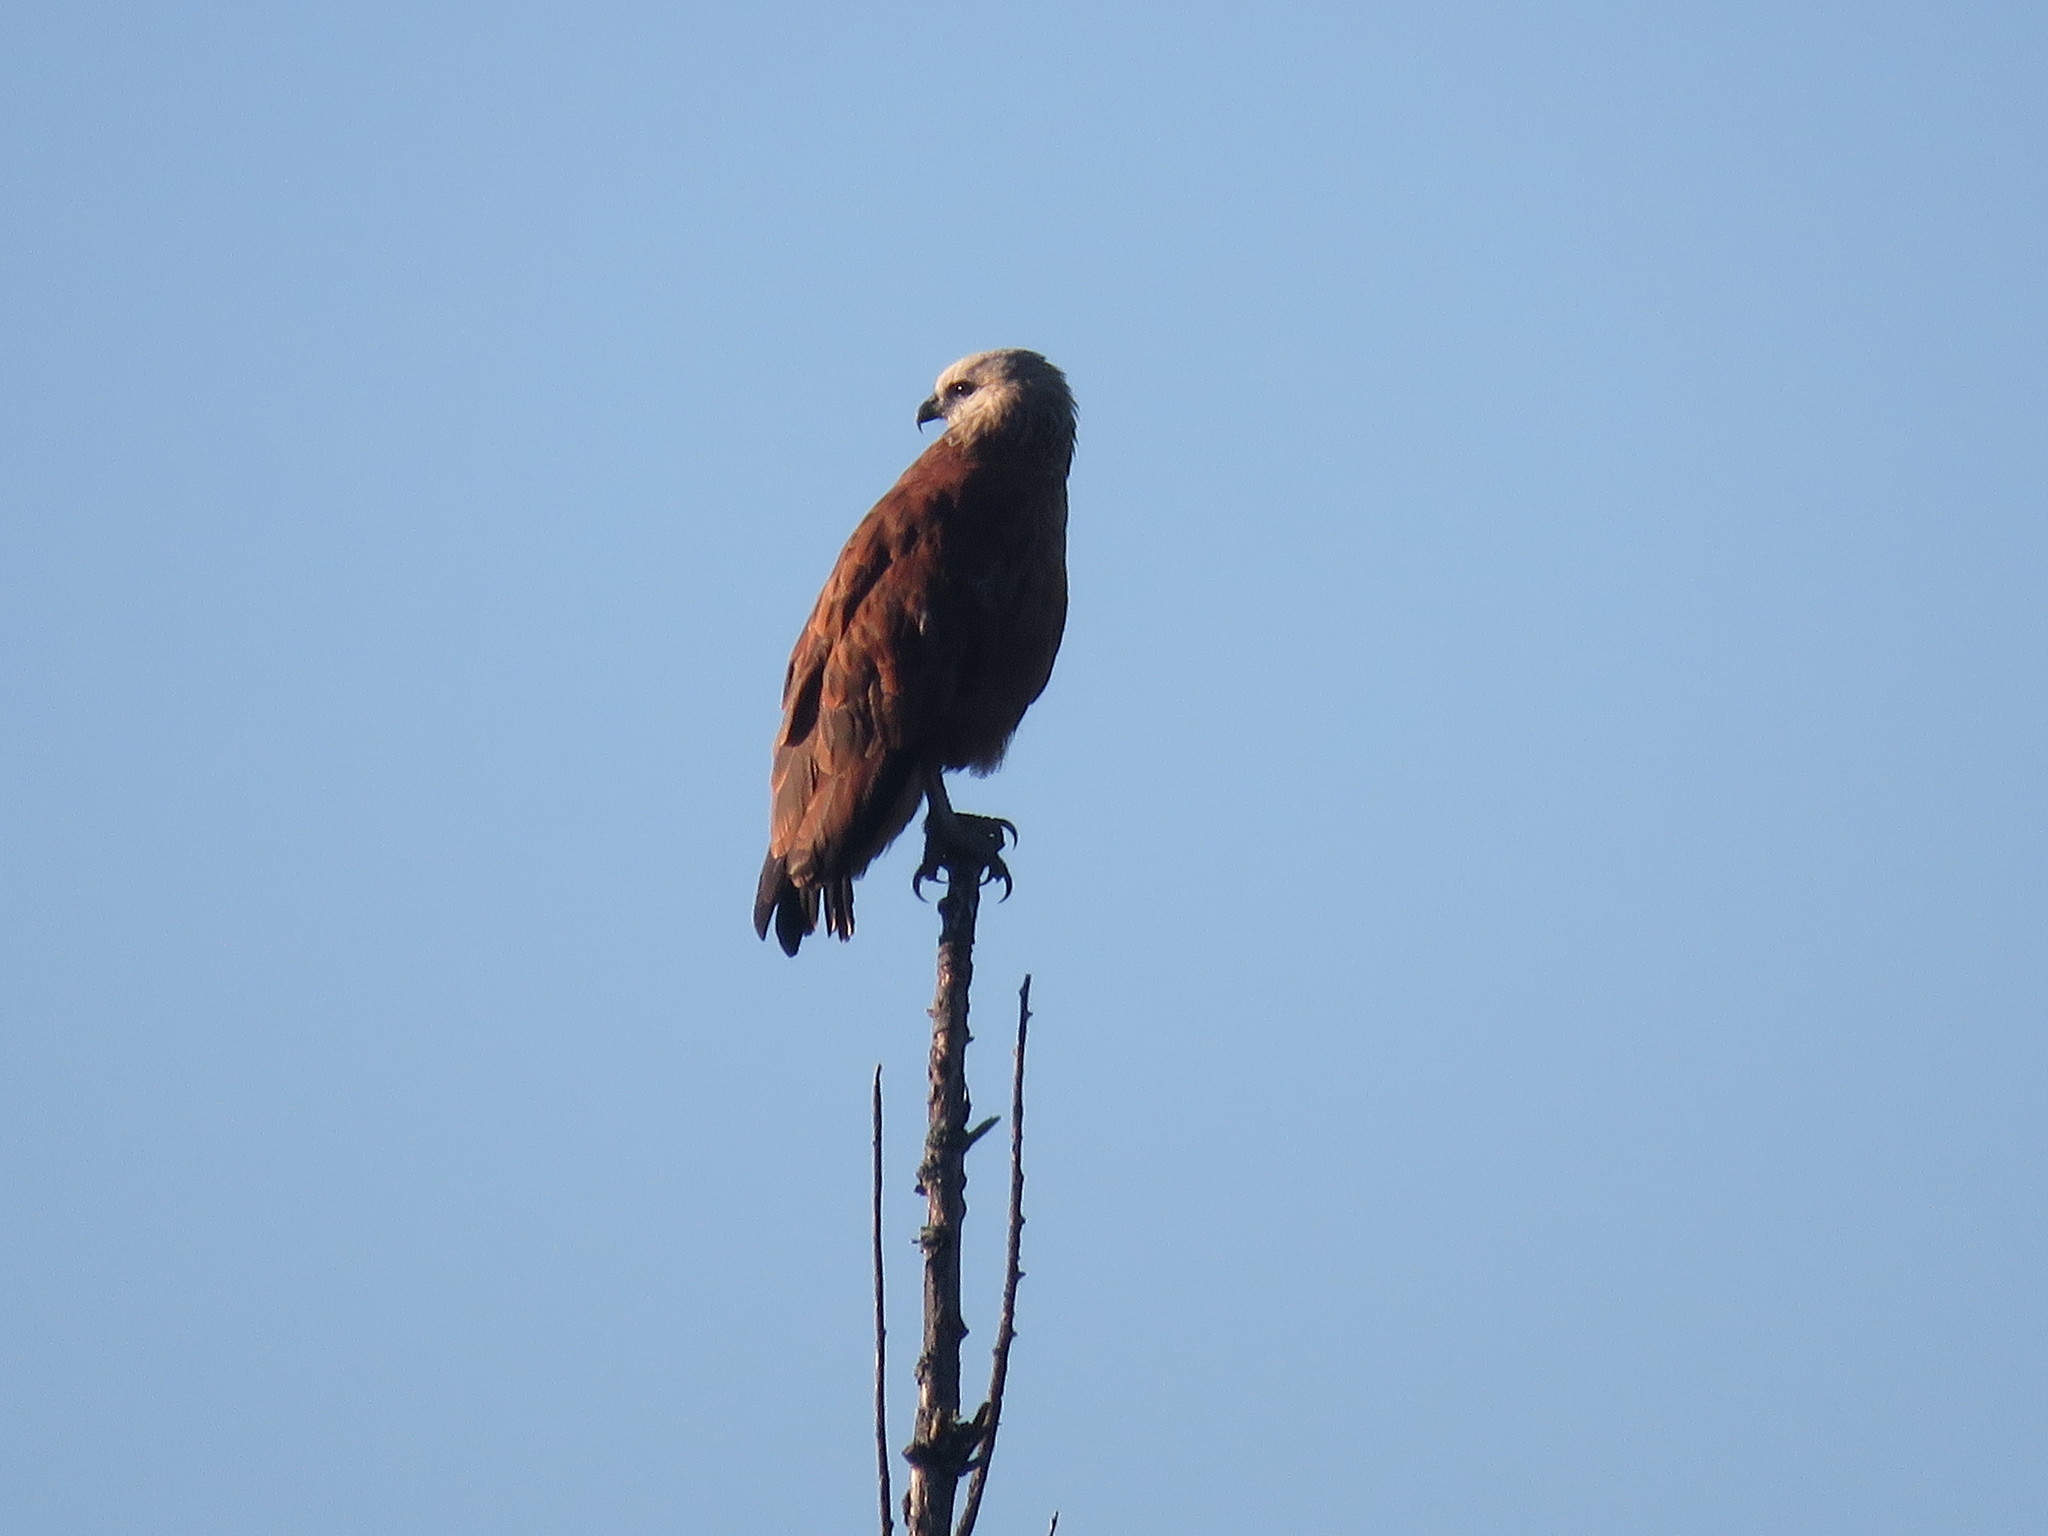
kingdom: Animalia
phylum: Chordata
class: Aves
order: Accipitriformes
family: Accipitridae
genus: Busarellus
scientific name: Busarellus nigricollis
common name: Black-collared hawk
